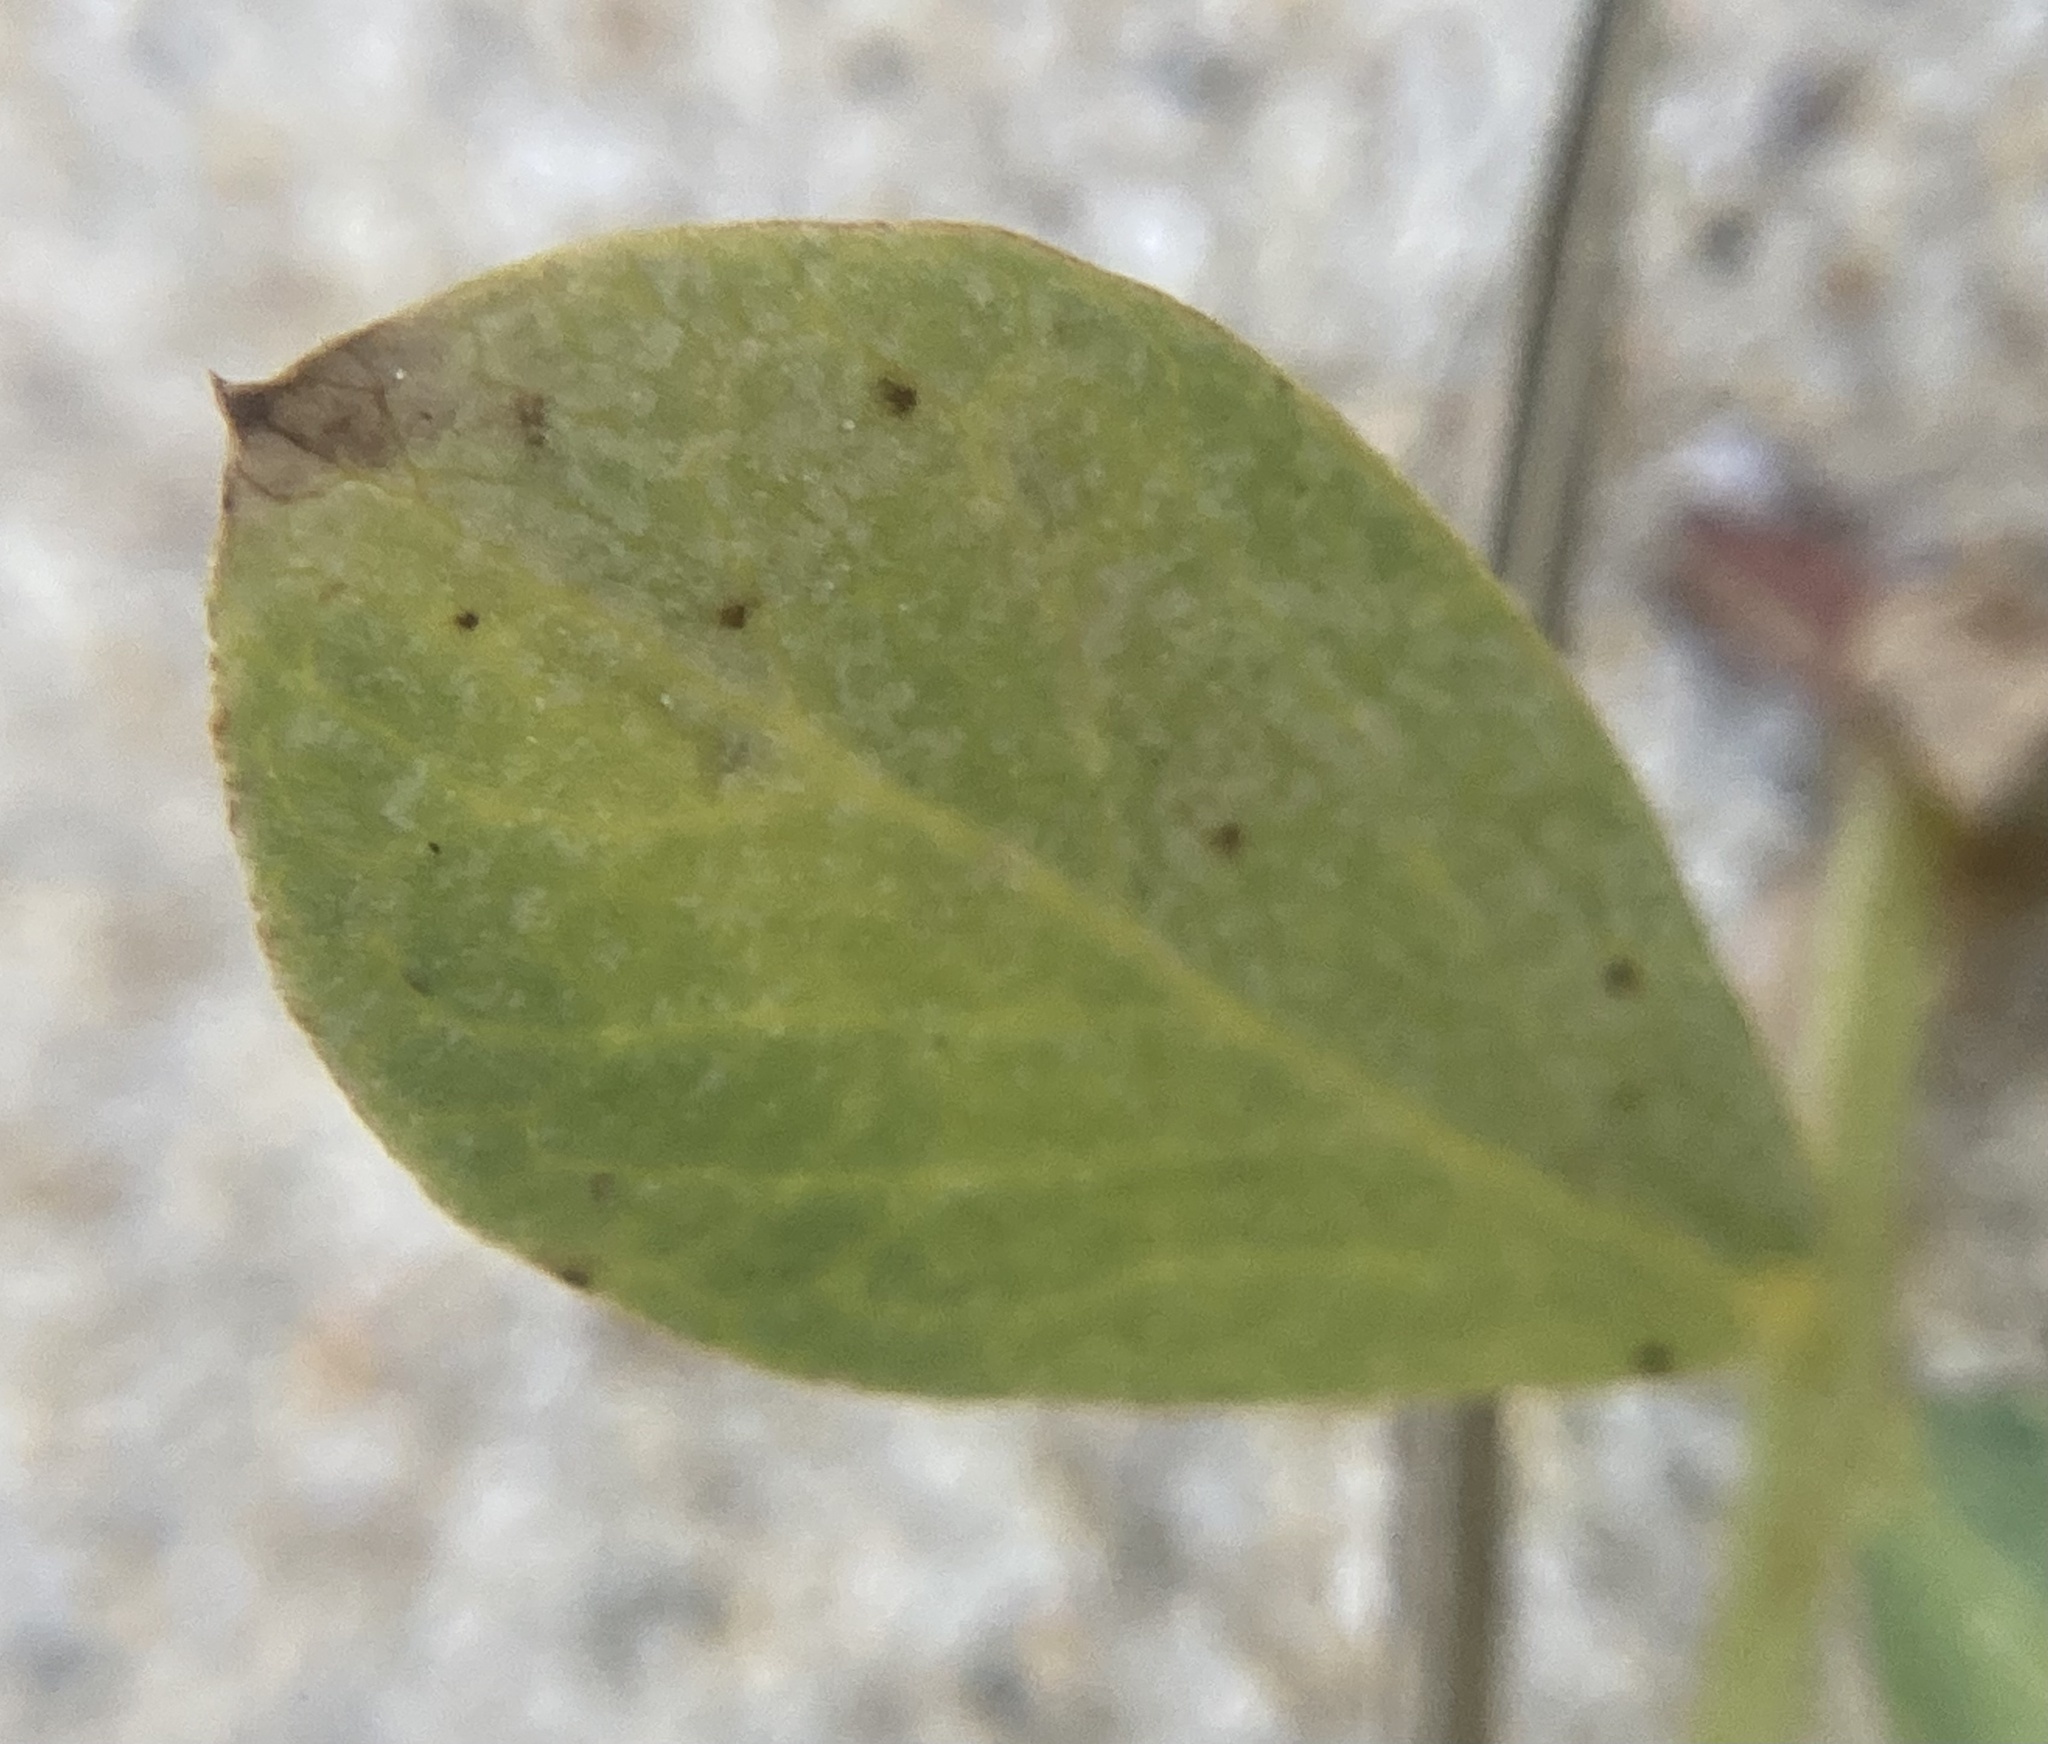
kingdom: Plantae
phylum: Tracheophyta
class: Magnoliopsida
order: Fabales
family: Fabaceae
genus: Lathyrus
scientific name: Lathyrus japonicus
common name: Sea pea
